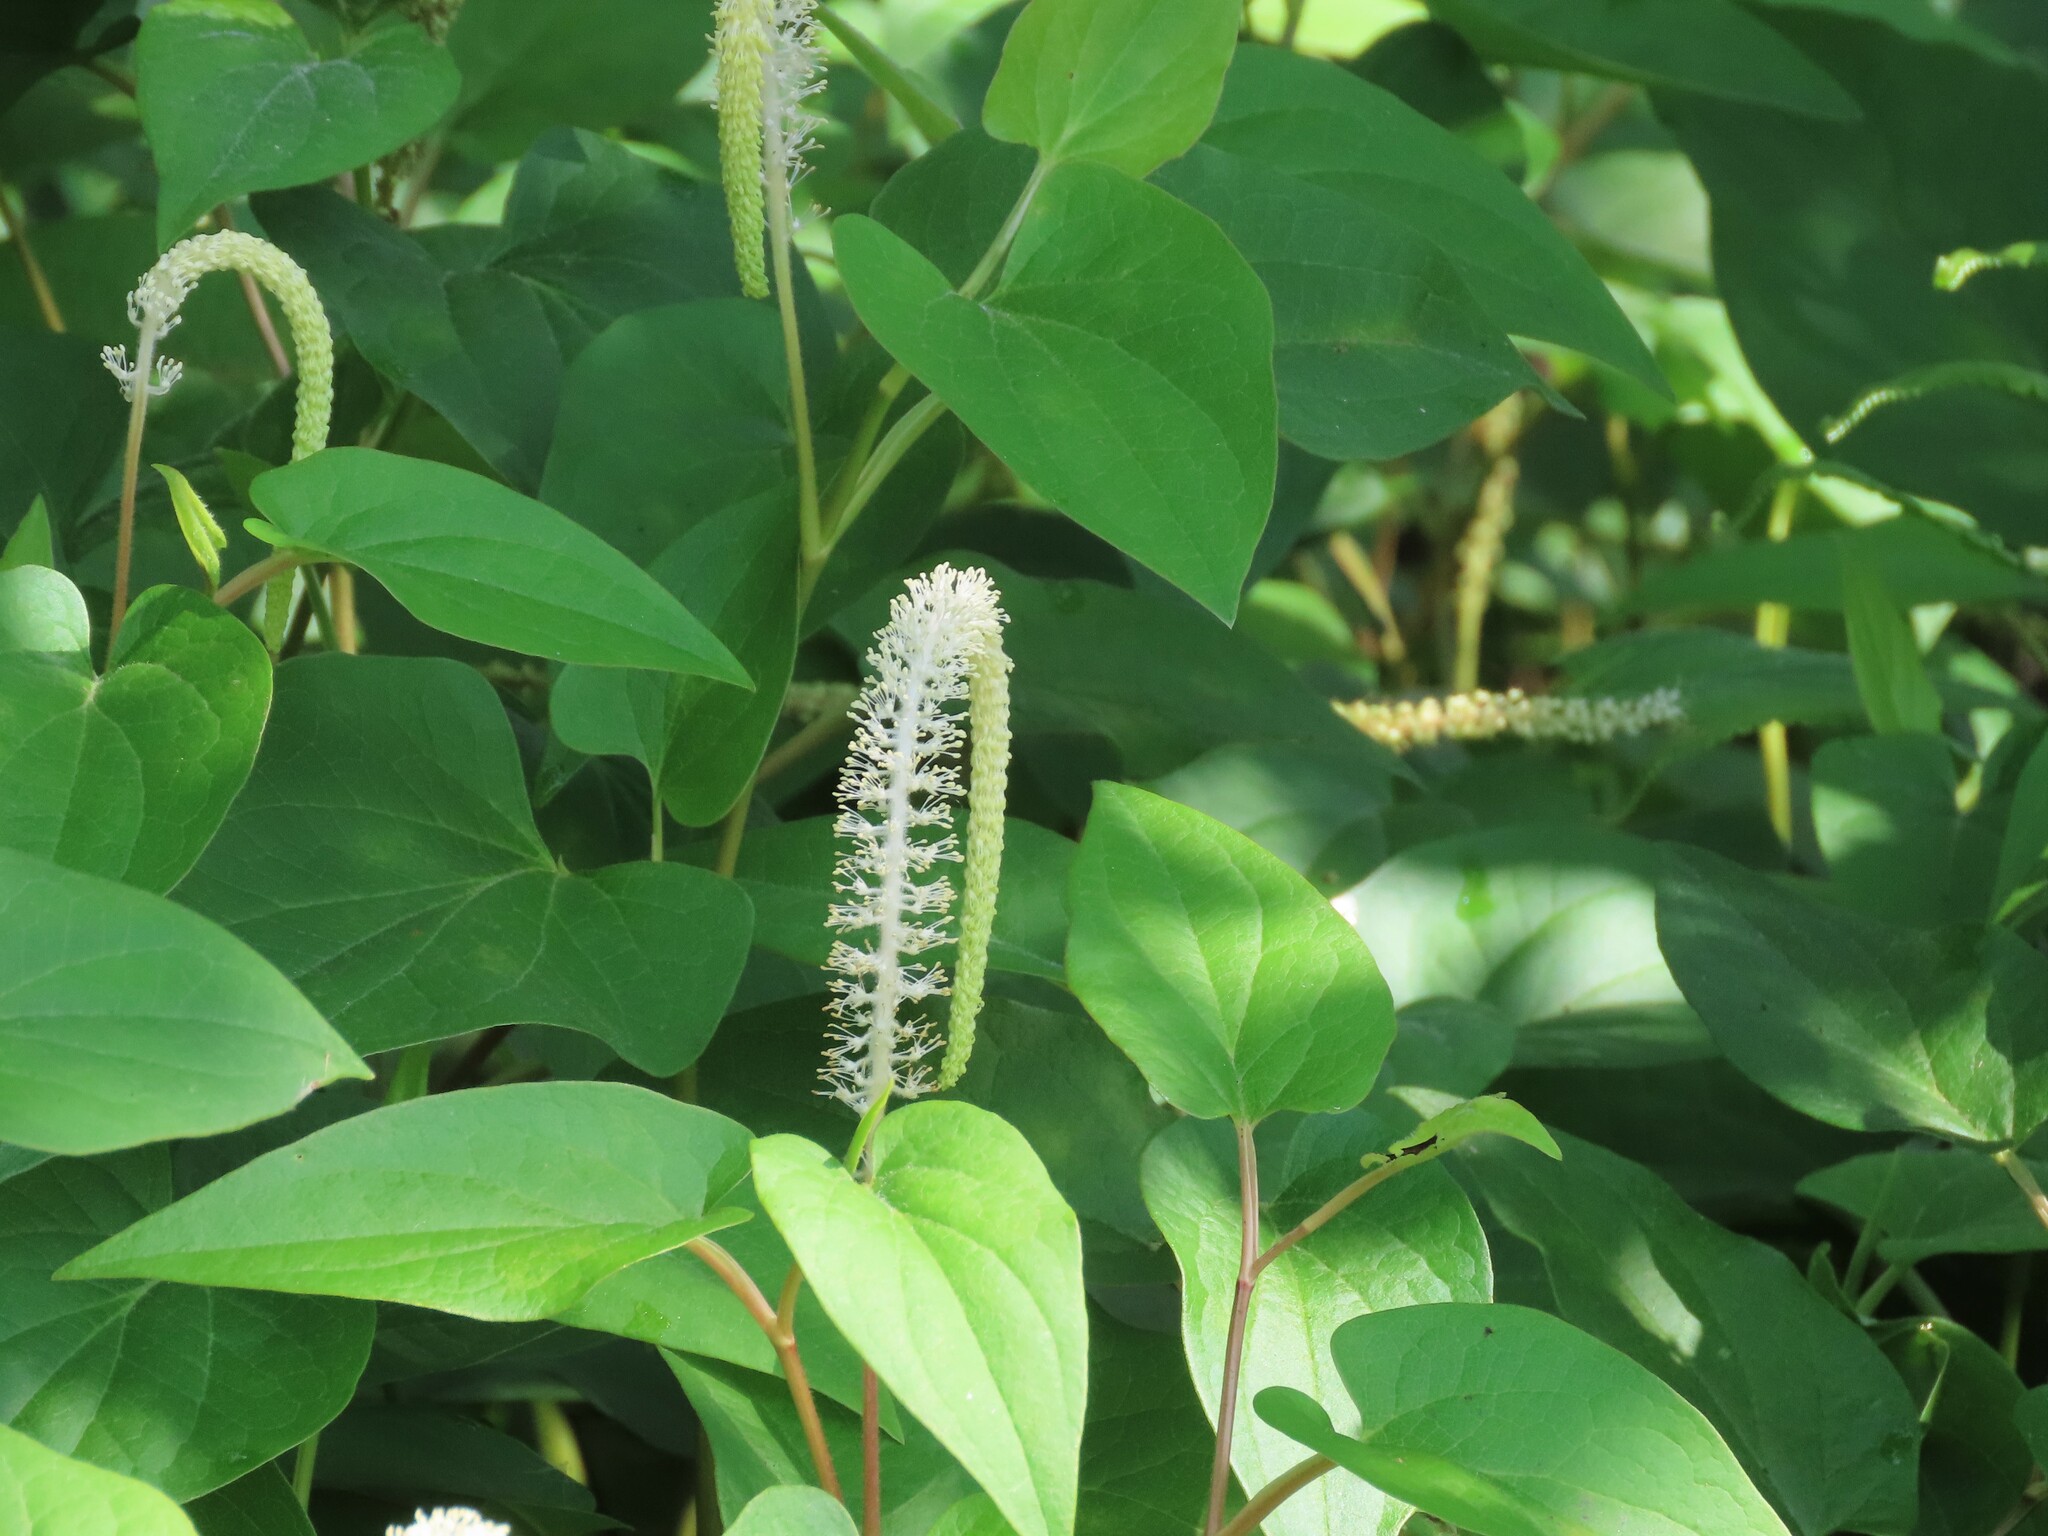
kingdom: Plantae
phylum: Tracheophyta
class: Magnoliopsida
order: Piperales
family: Saururaceae
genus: Saururus
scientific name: Saururus cernuus
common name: Lizard's-tail
